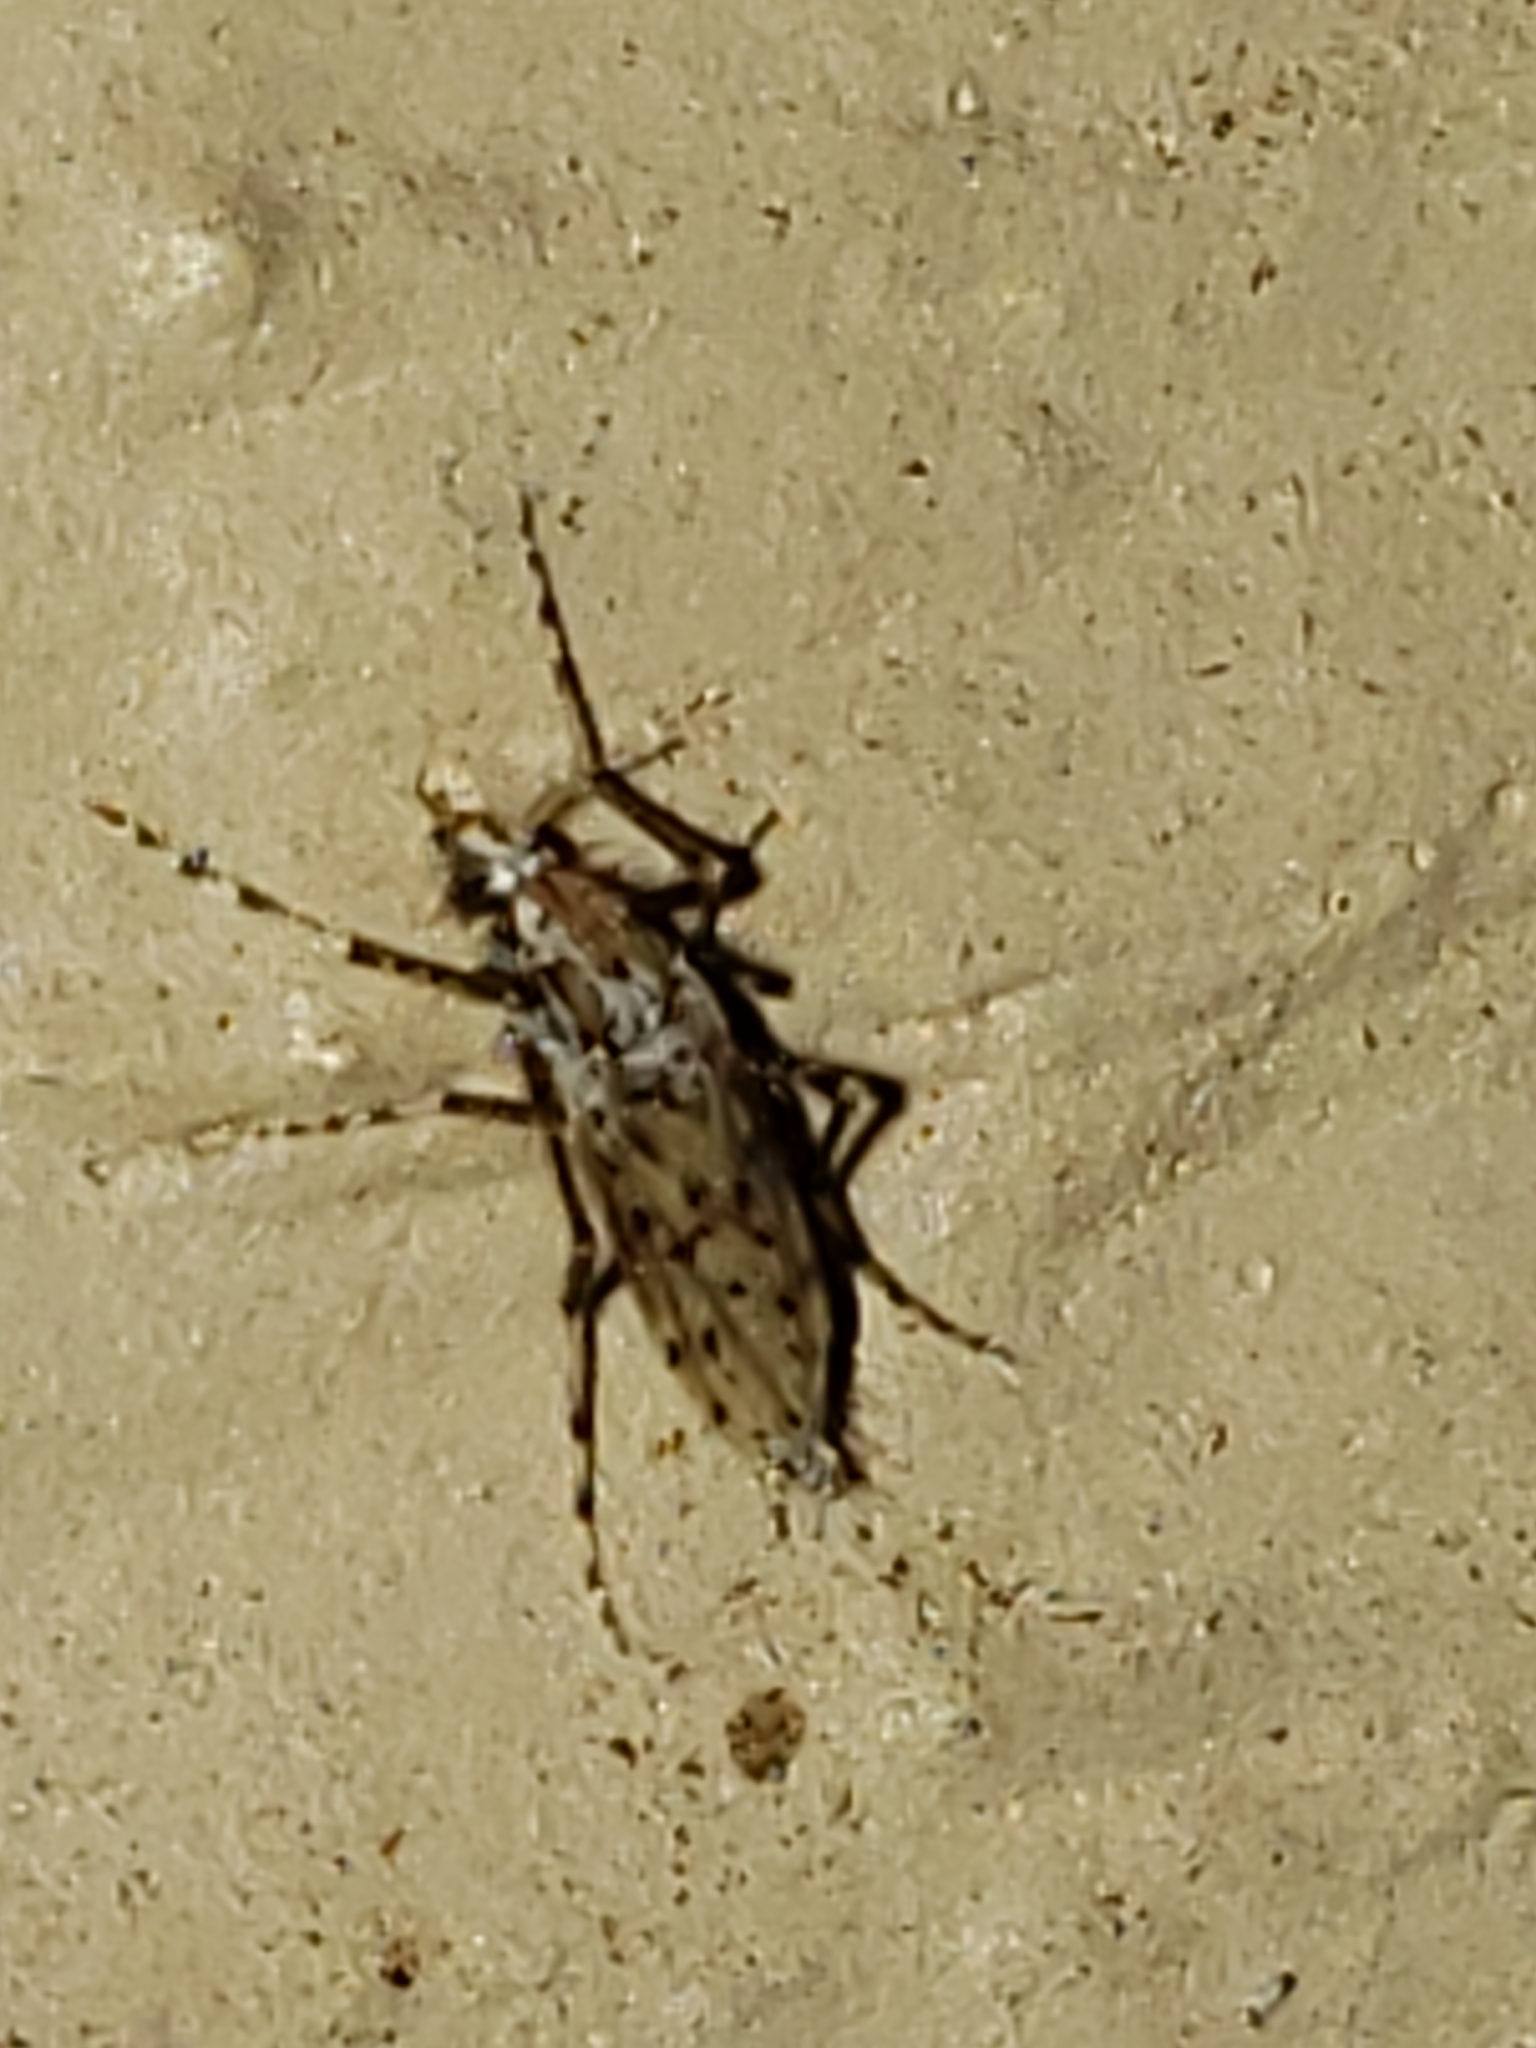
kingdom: Animalia
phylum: Arthropoda
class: Insecta
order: Diptera
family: Chaoboridae
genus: Chaoborus
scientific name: Chaoborus punctipennis
